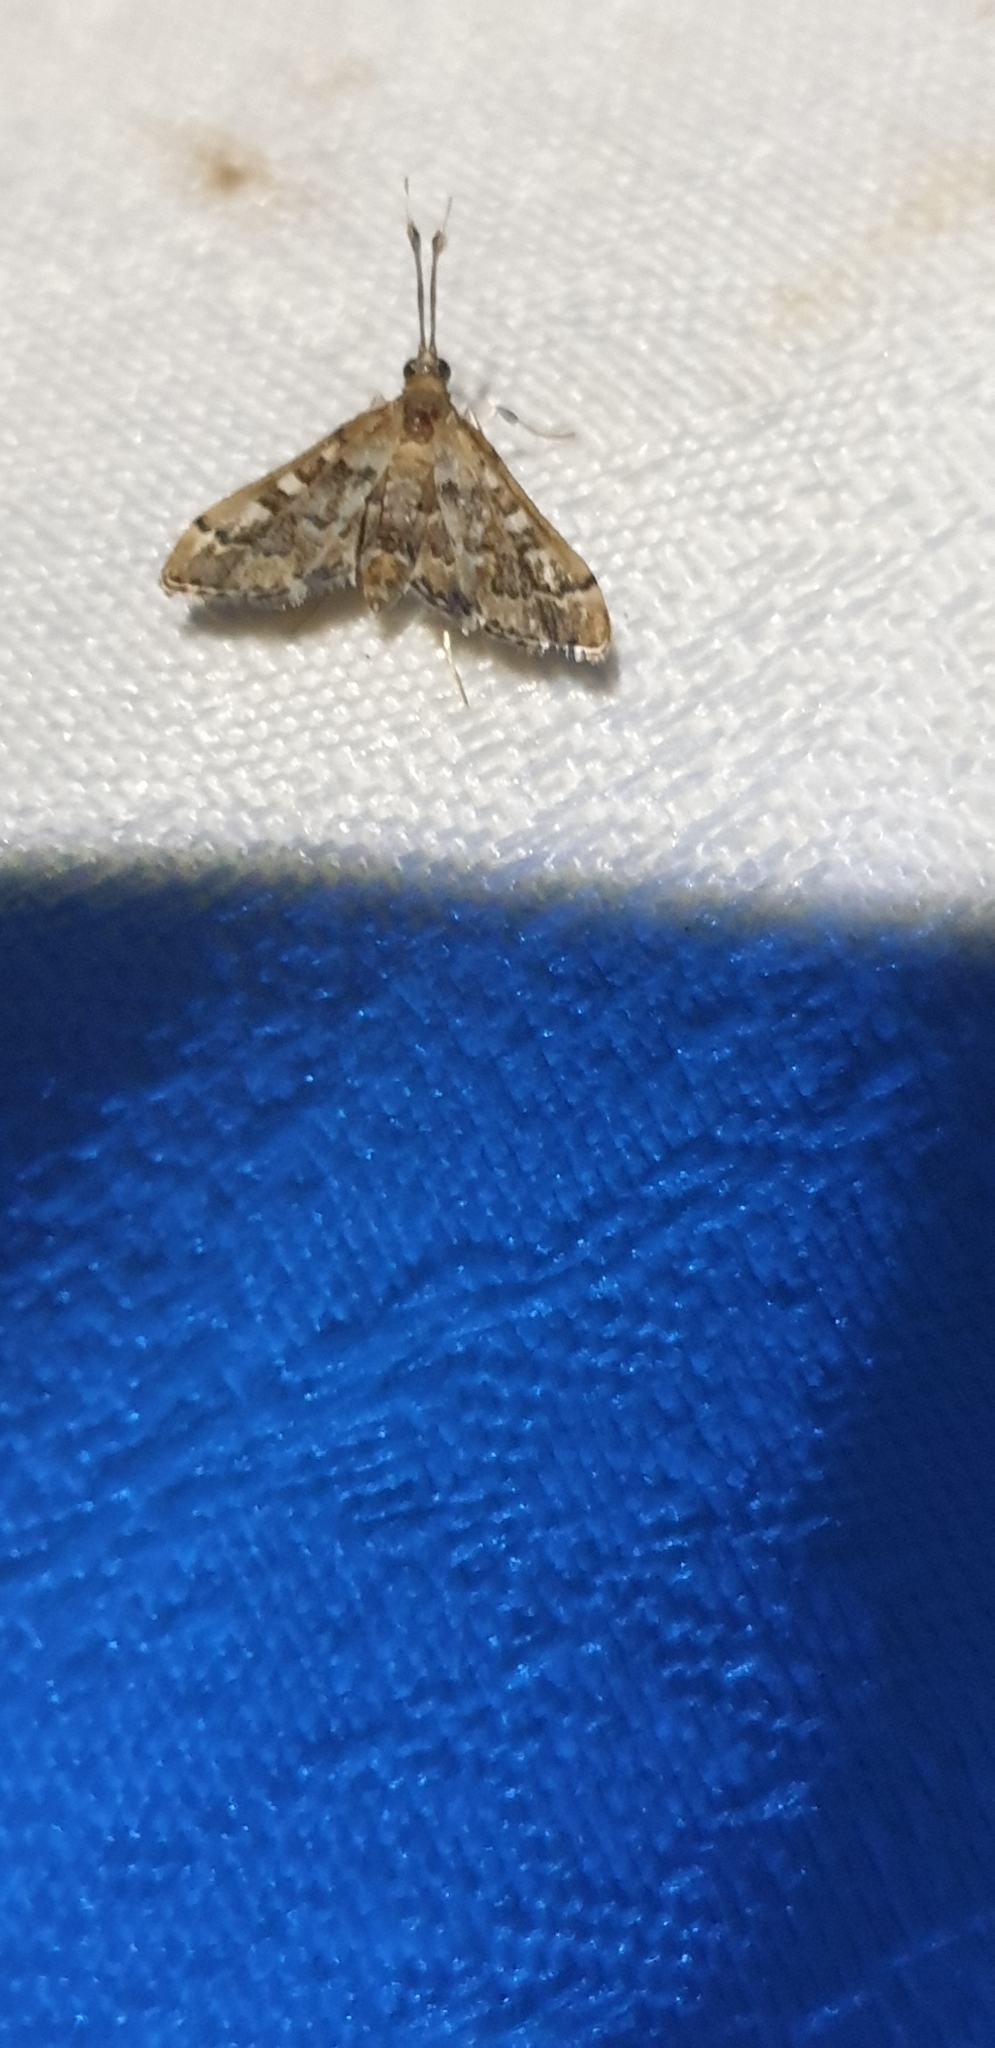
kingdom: Animalia
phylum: Arthropoda
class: Insecta
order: Lepidoptera
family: Crambidae
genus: Nacoleia
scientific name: Nacoleia rhoeoalis
